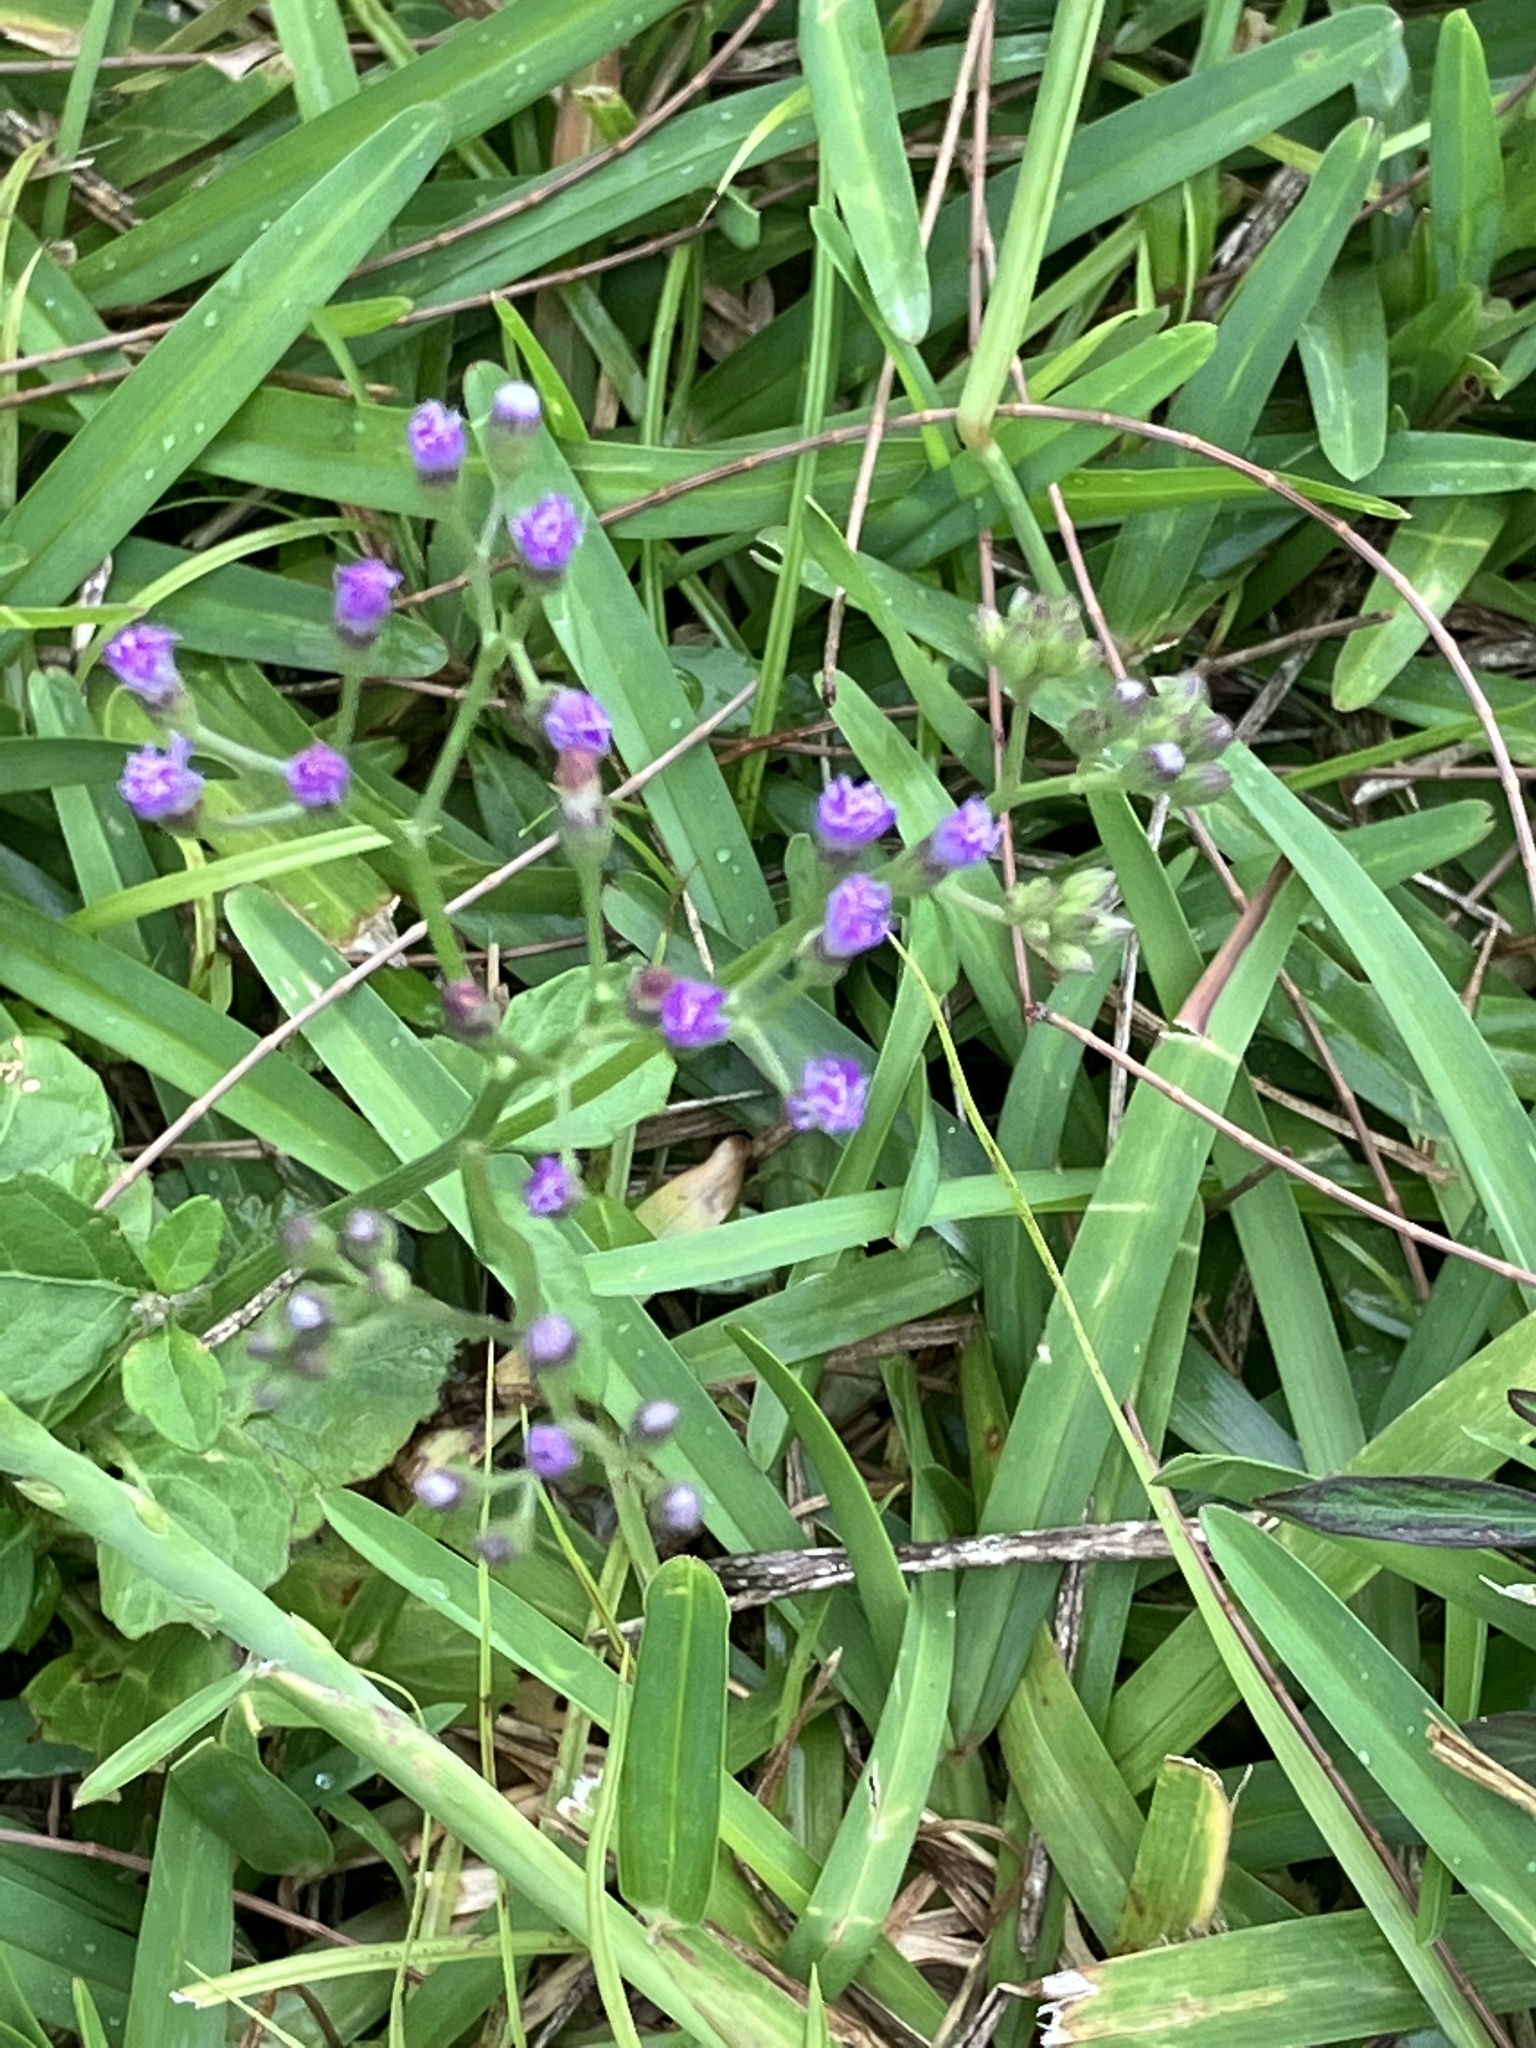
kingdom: Plantae
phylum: Tracheophyta
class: Magnoliopsida
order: Asterales
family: Asteraceae
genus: Cyanthillium
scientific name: Cyanthillium cinereum
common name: Little ironweed
